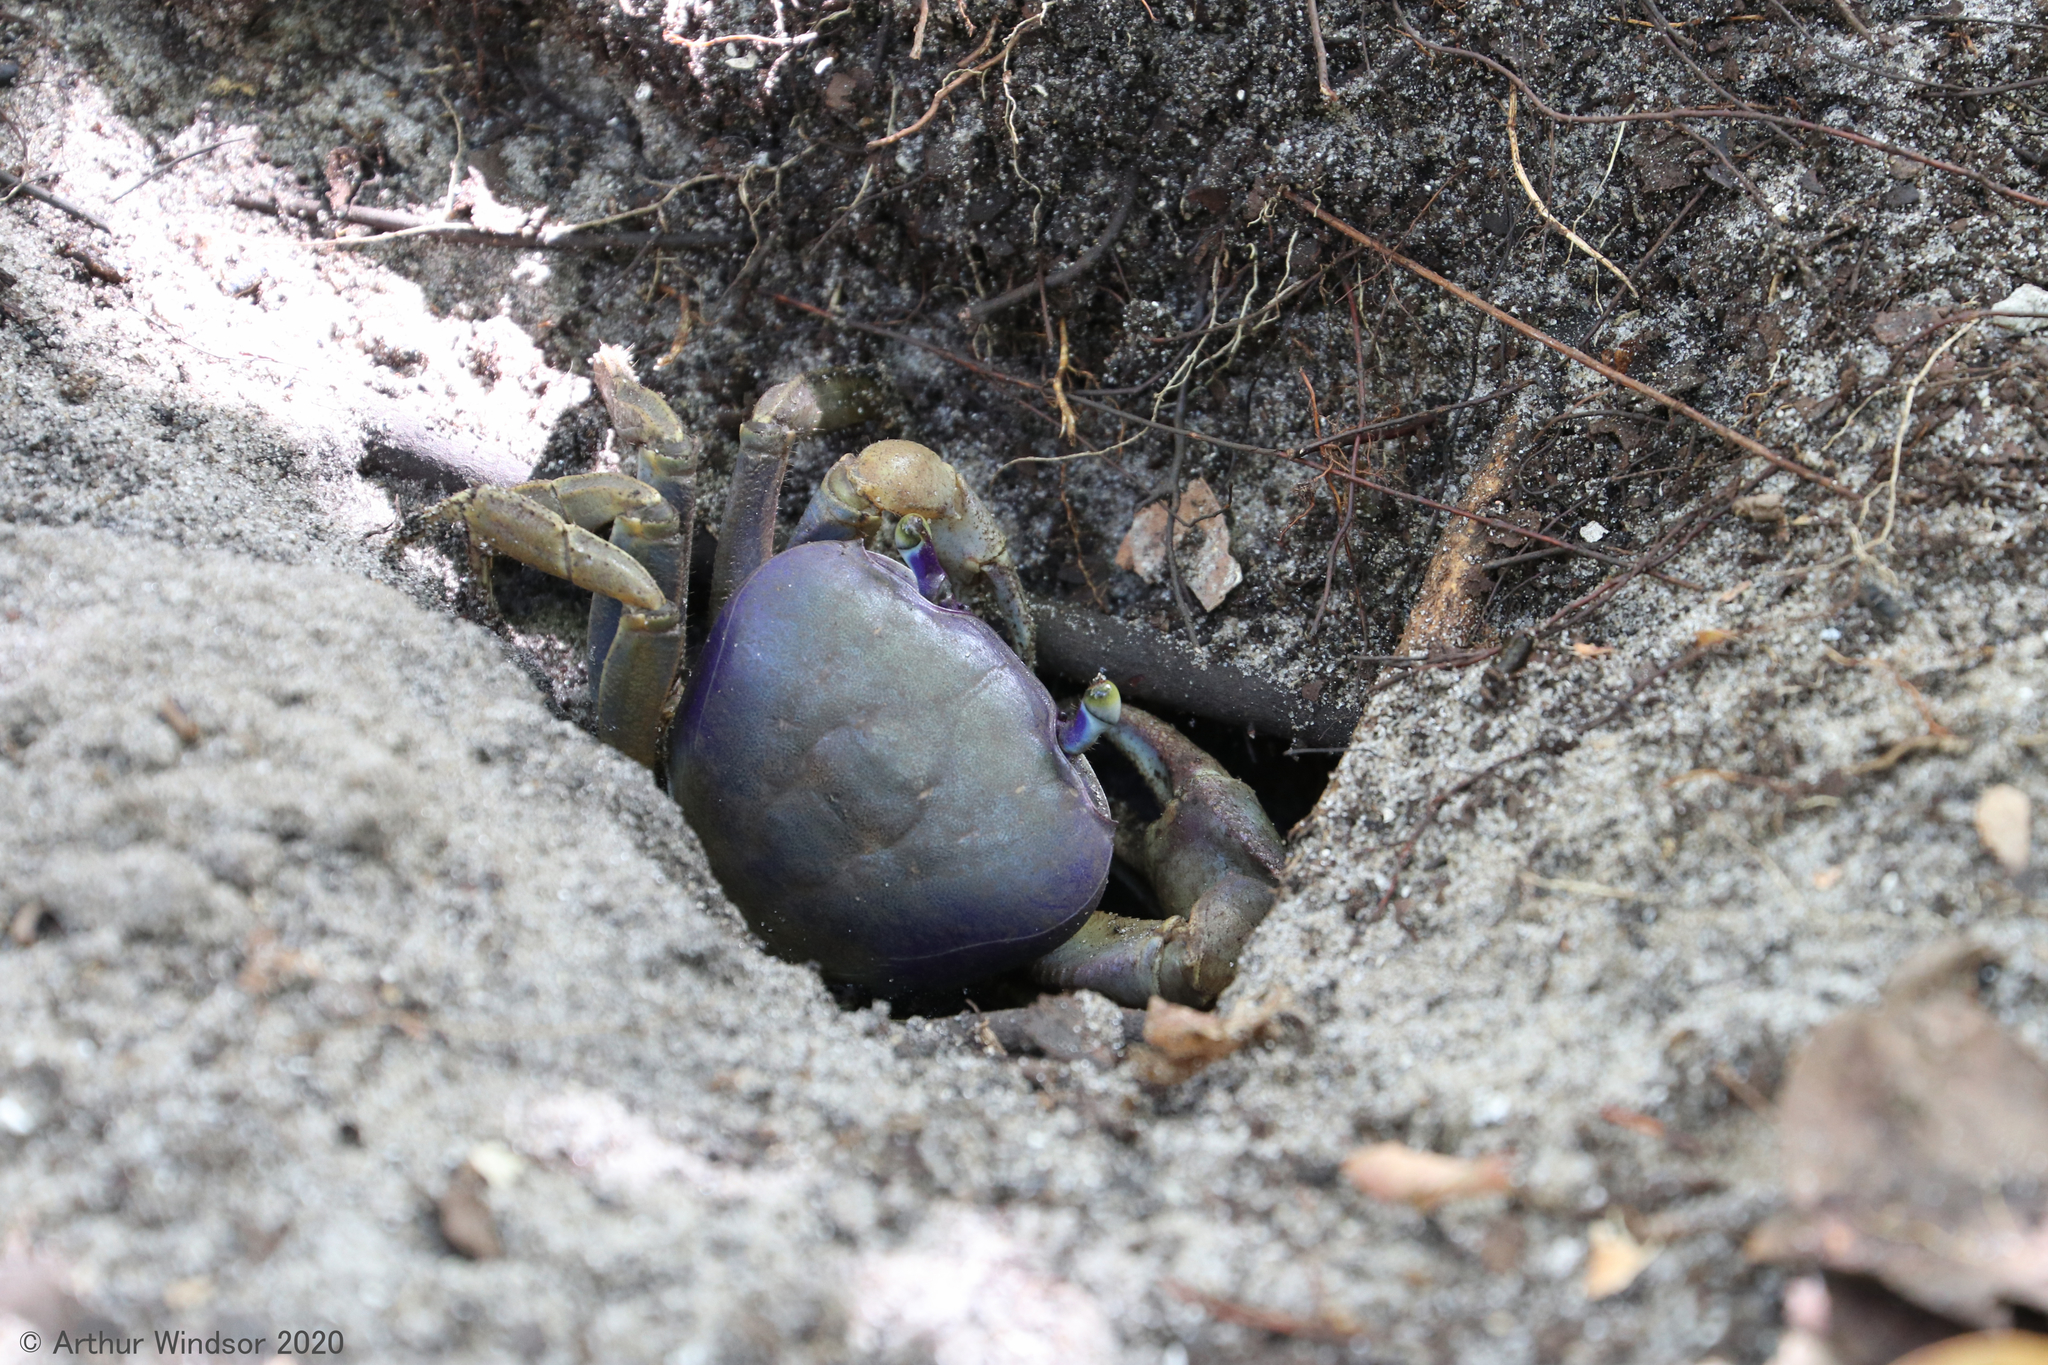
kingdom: Animalia
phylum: Arthropoda
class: Malacostraca
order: Decapoda
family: Gecarcinidae
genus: Cardisoma
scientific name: Cardisoma guanhumi
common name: Great land crab
